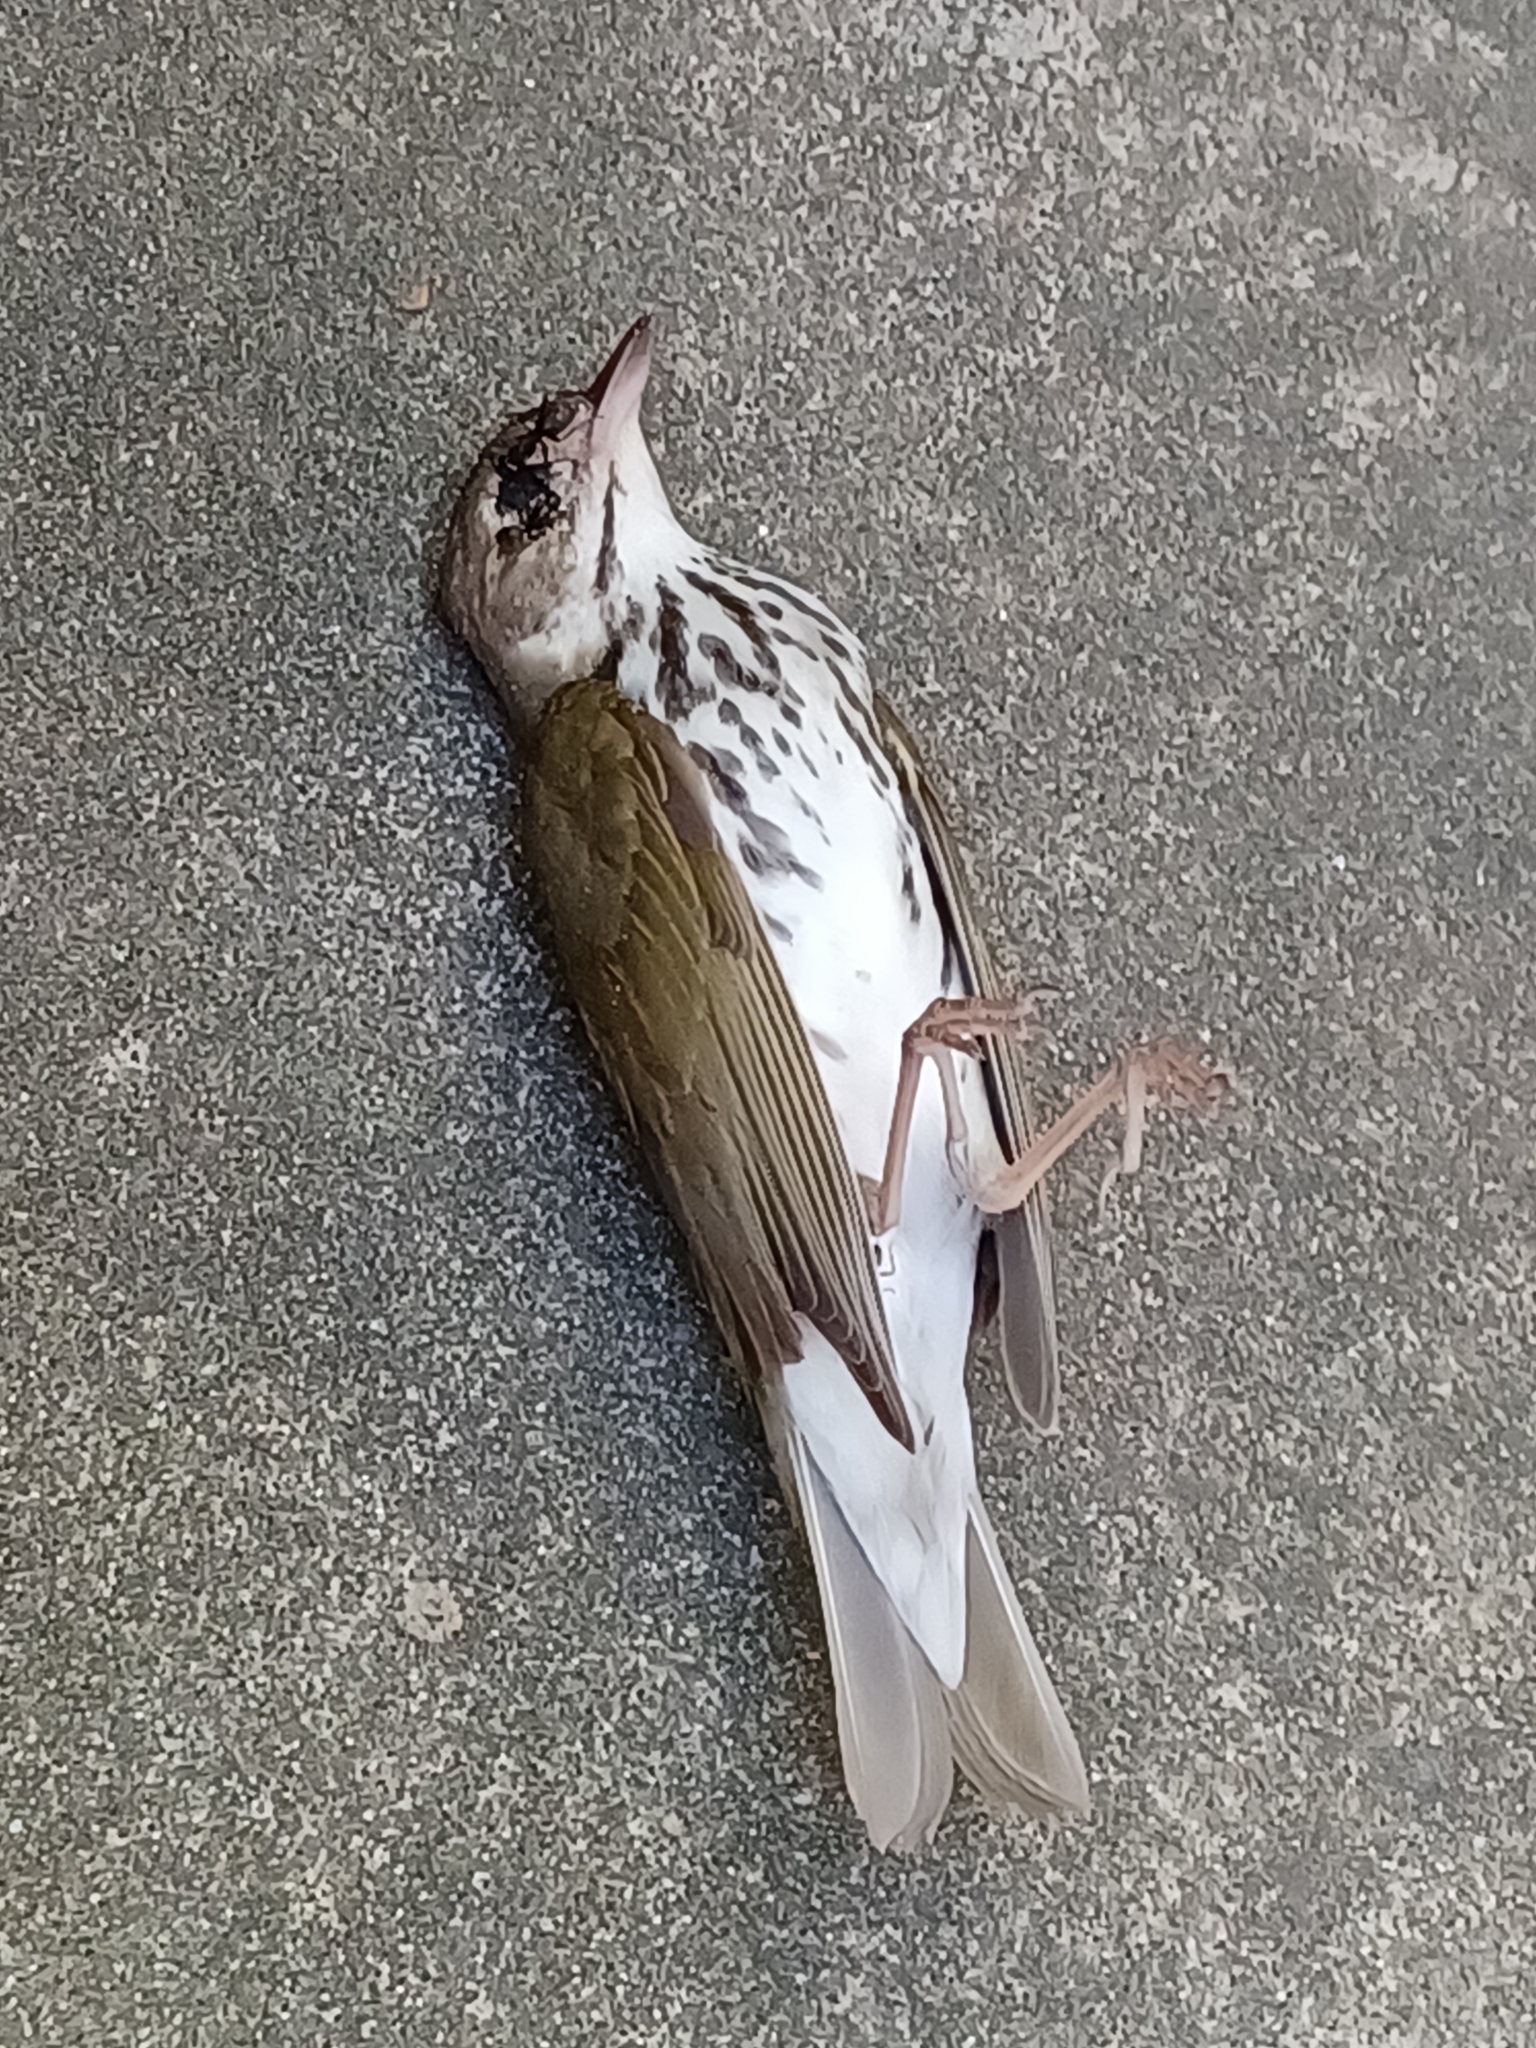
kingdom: Animalia
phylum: Chordata
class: Aves
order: Passeriformes
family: Parulidae
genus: Seiurus
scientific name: Seiurus aurocapilla
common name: Ovenbird
